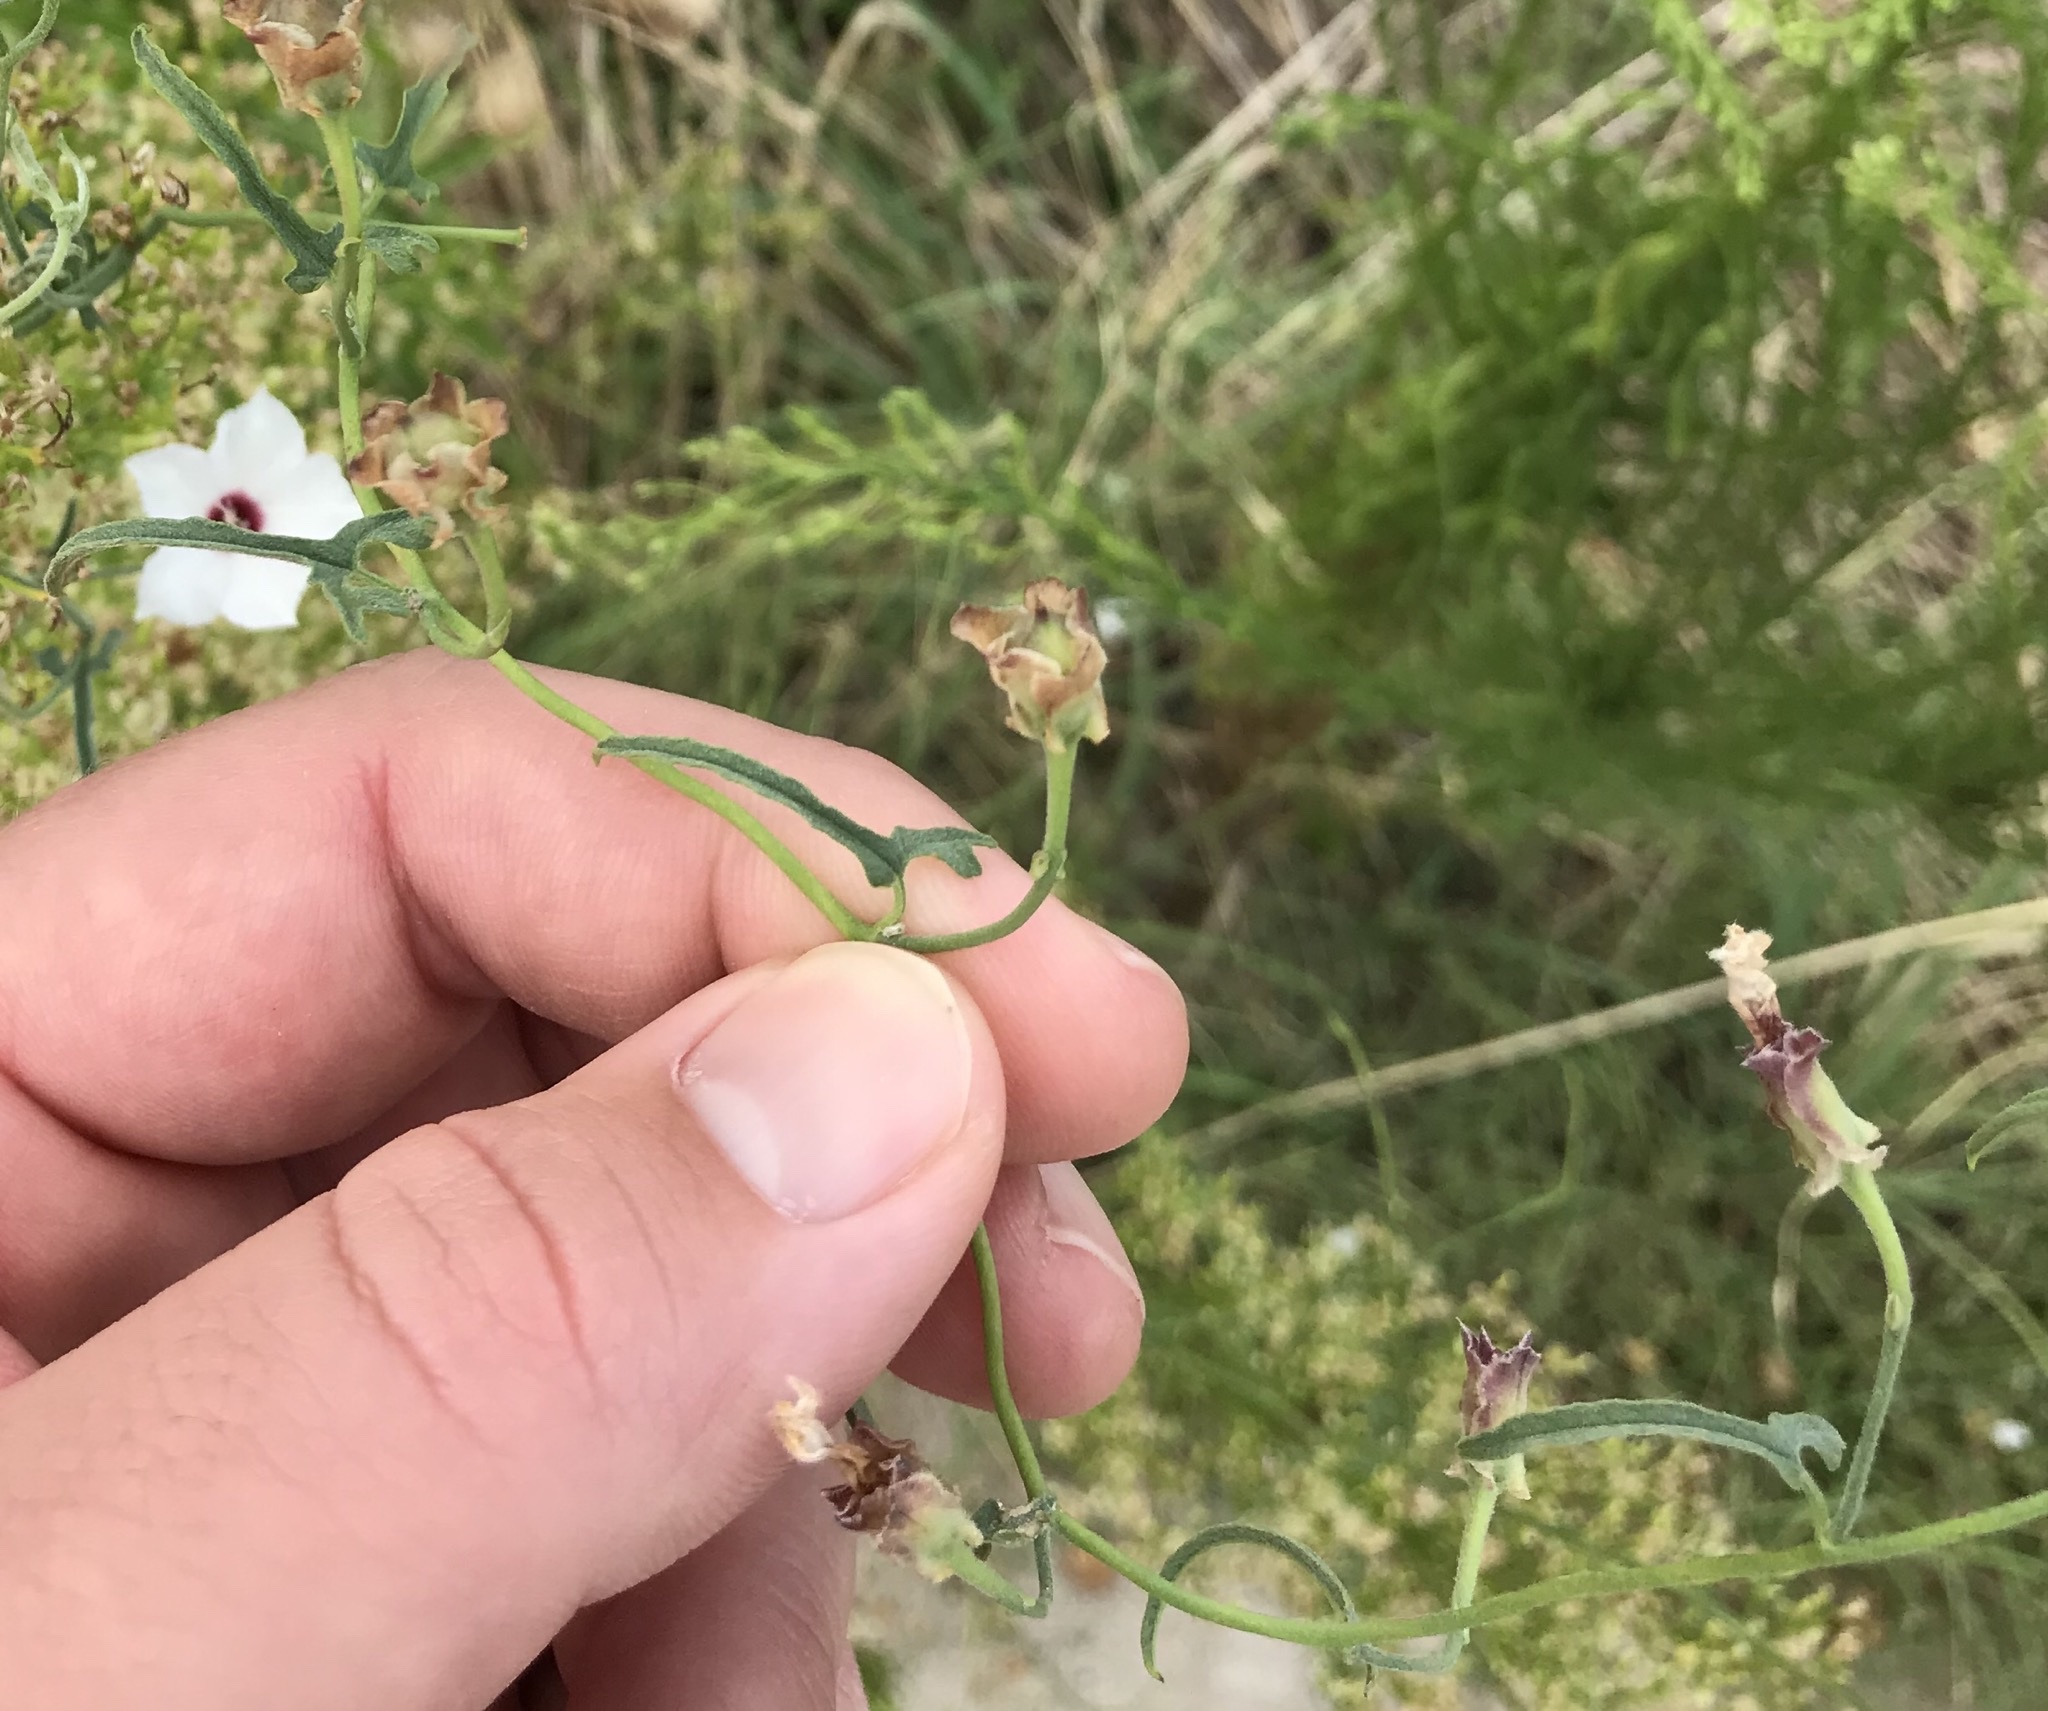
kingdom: Plantae
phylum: Tracheophyta
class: Magnoliopsida
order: Solanales
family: Convolvulaceae
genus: Convolvulus
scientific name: Convolvulus equitans
